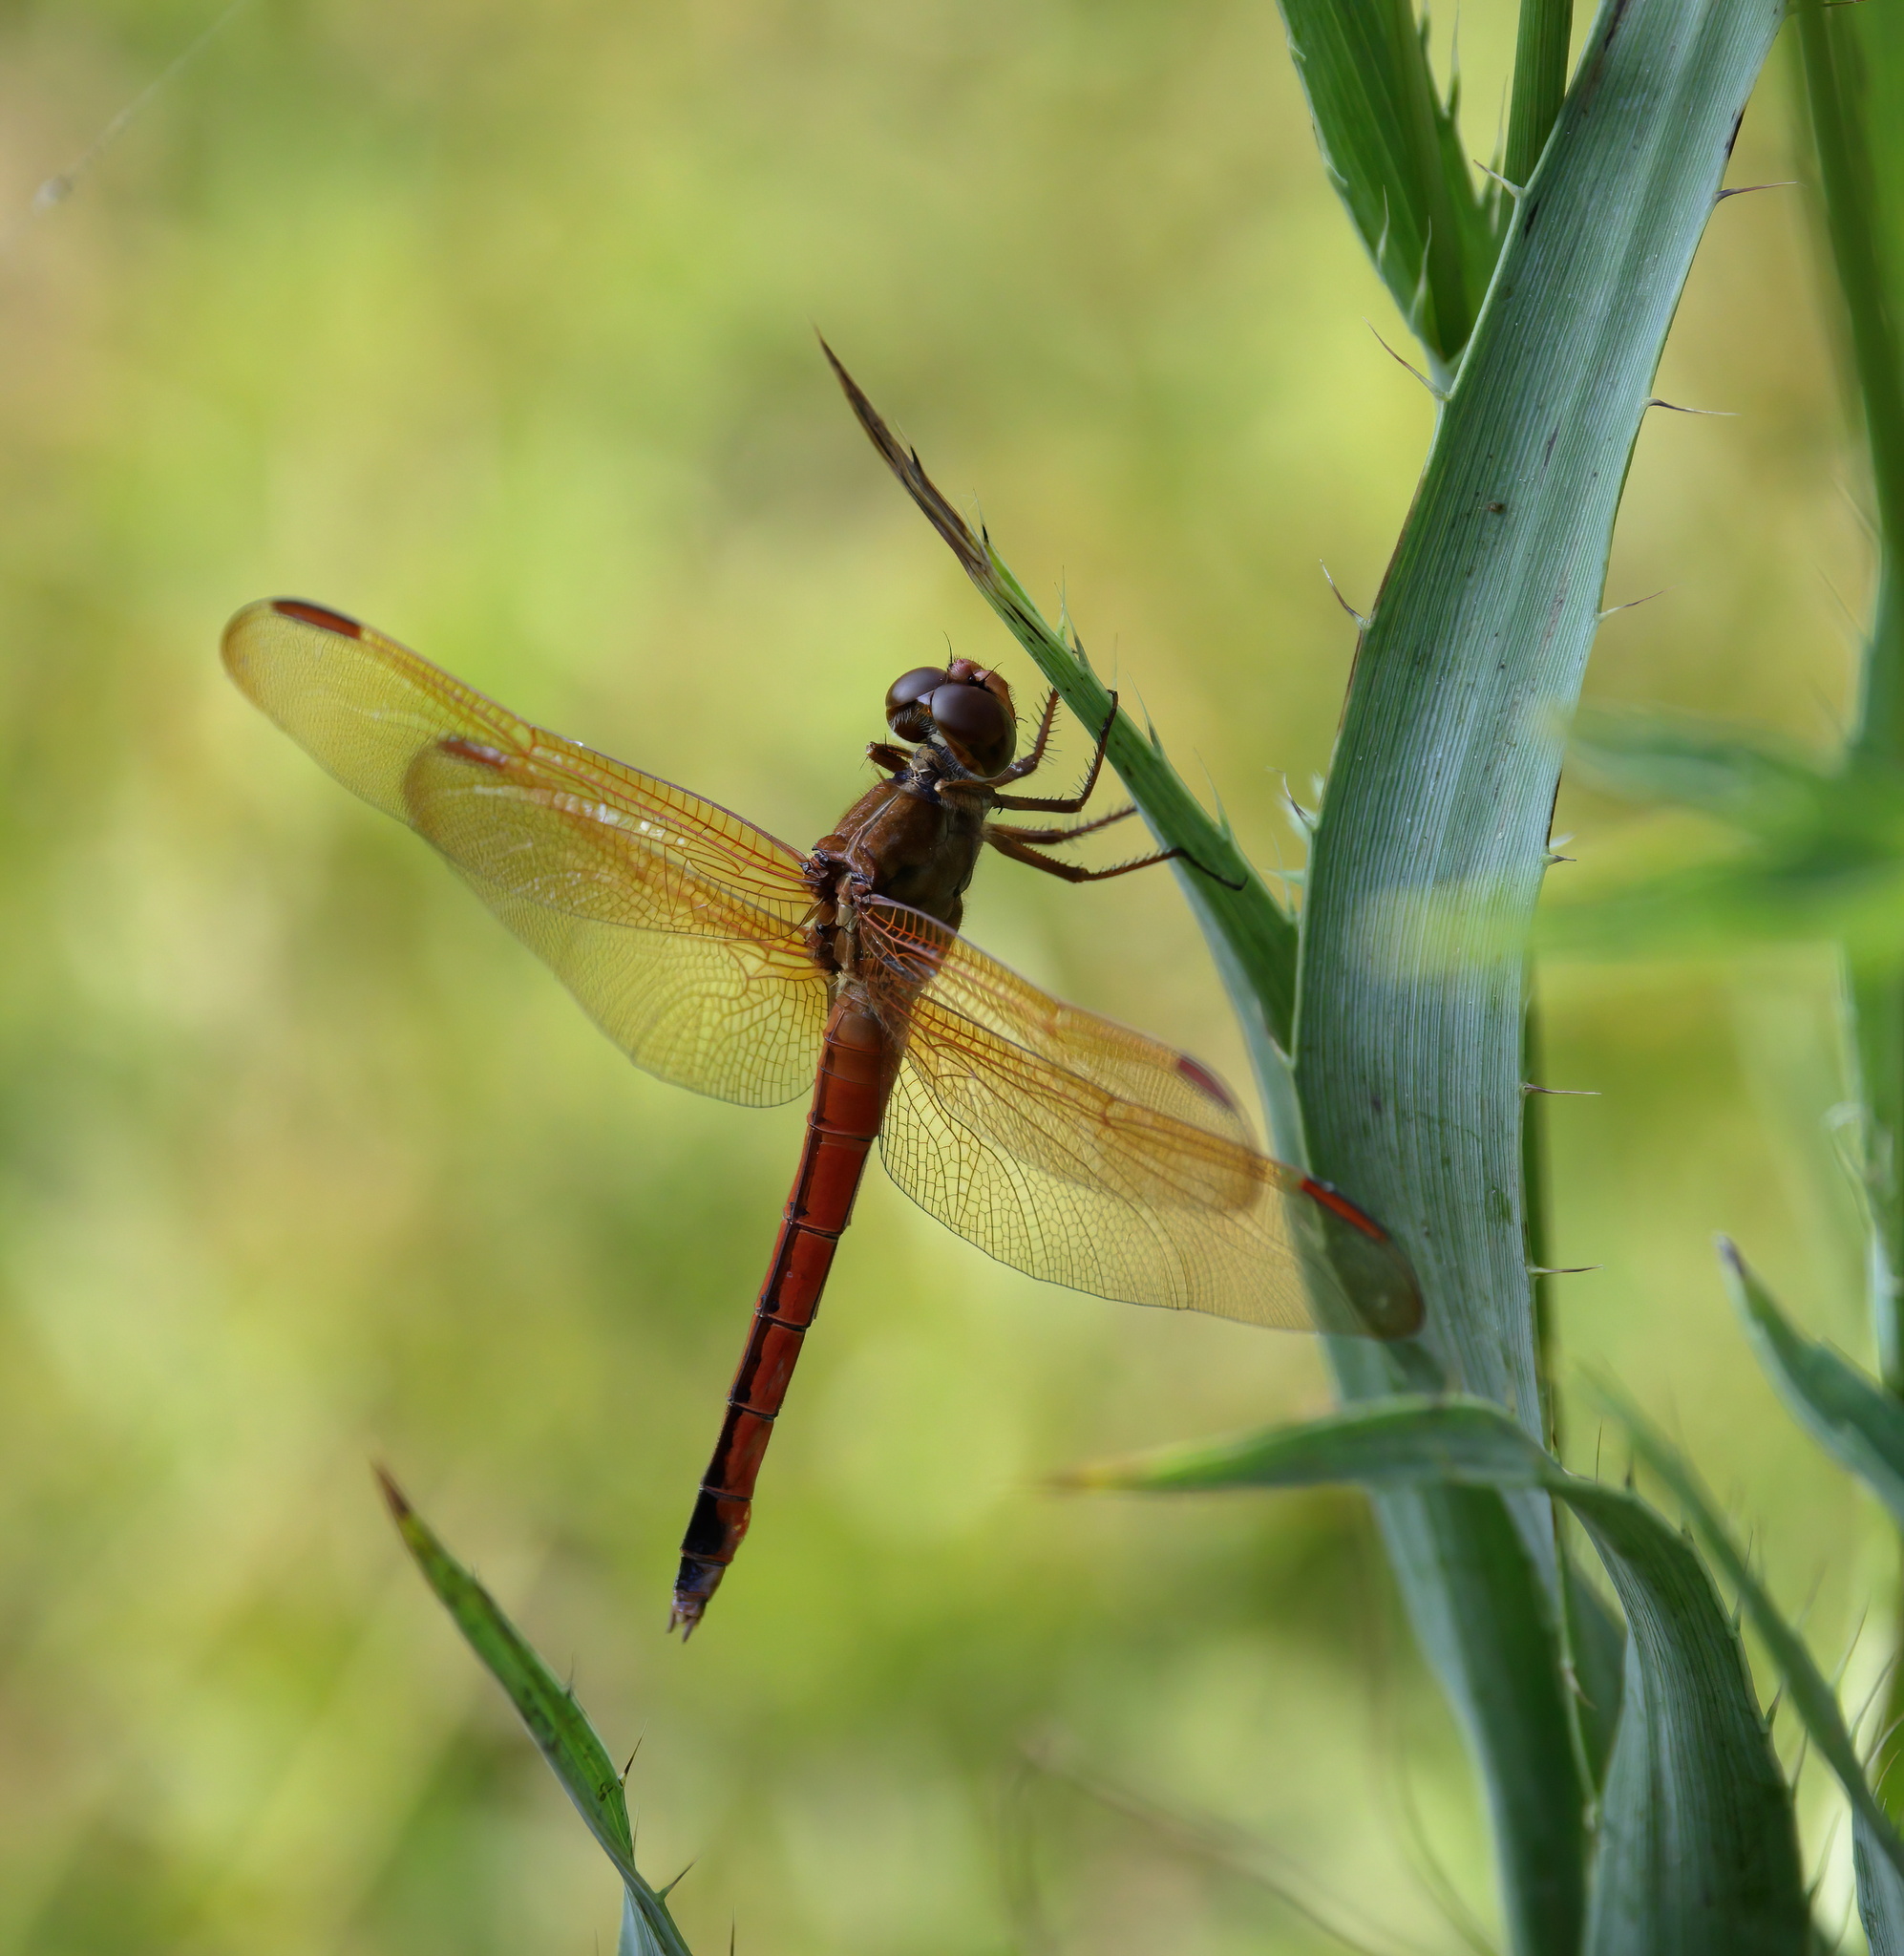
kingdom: Animalia
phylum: Arthropoda
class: Insecta
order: Odonata
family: Libellulidae
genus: Libellula
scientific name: Libellula needhami
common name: Needham's skimmer
